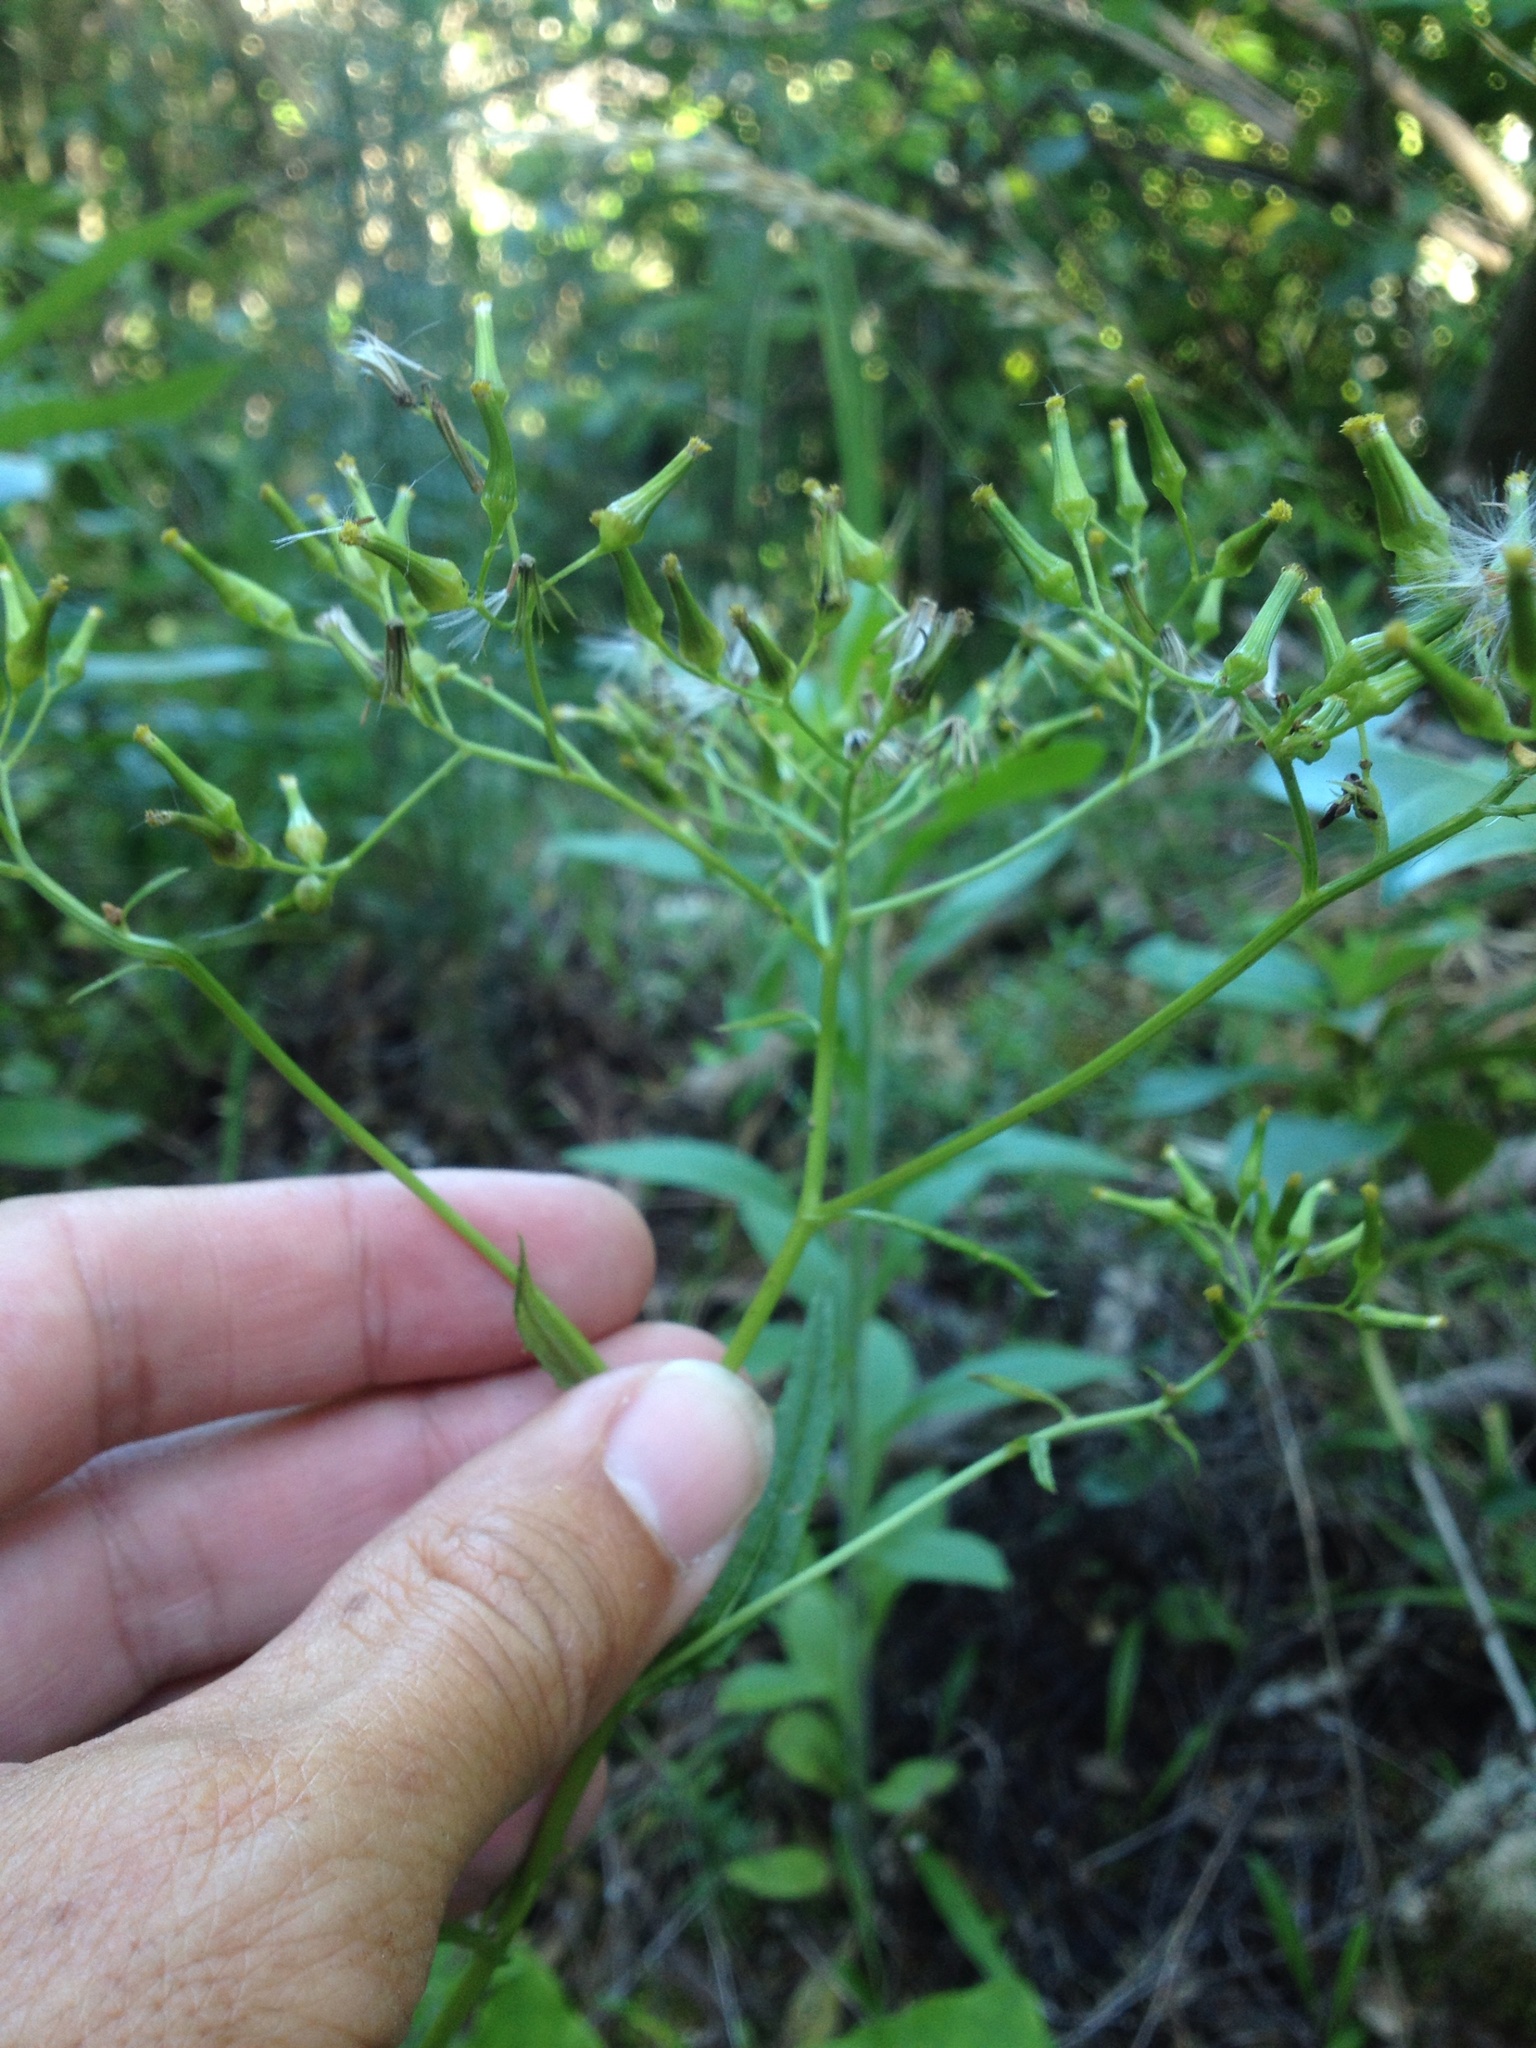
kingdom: Plantae
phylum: Tracheophyta
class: Magnoliopsida
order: Asterales
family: Asteraceae
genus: Senecio
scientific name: Senecio minimus
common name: Toothed fireweed
